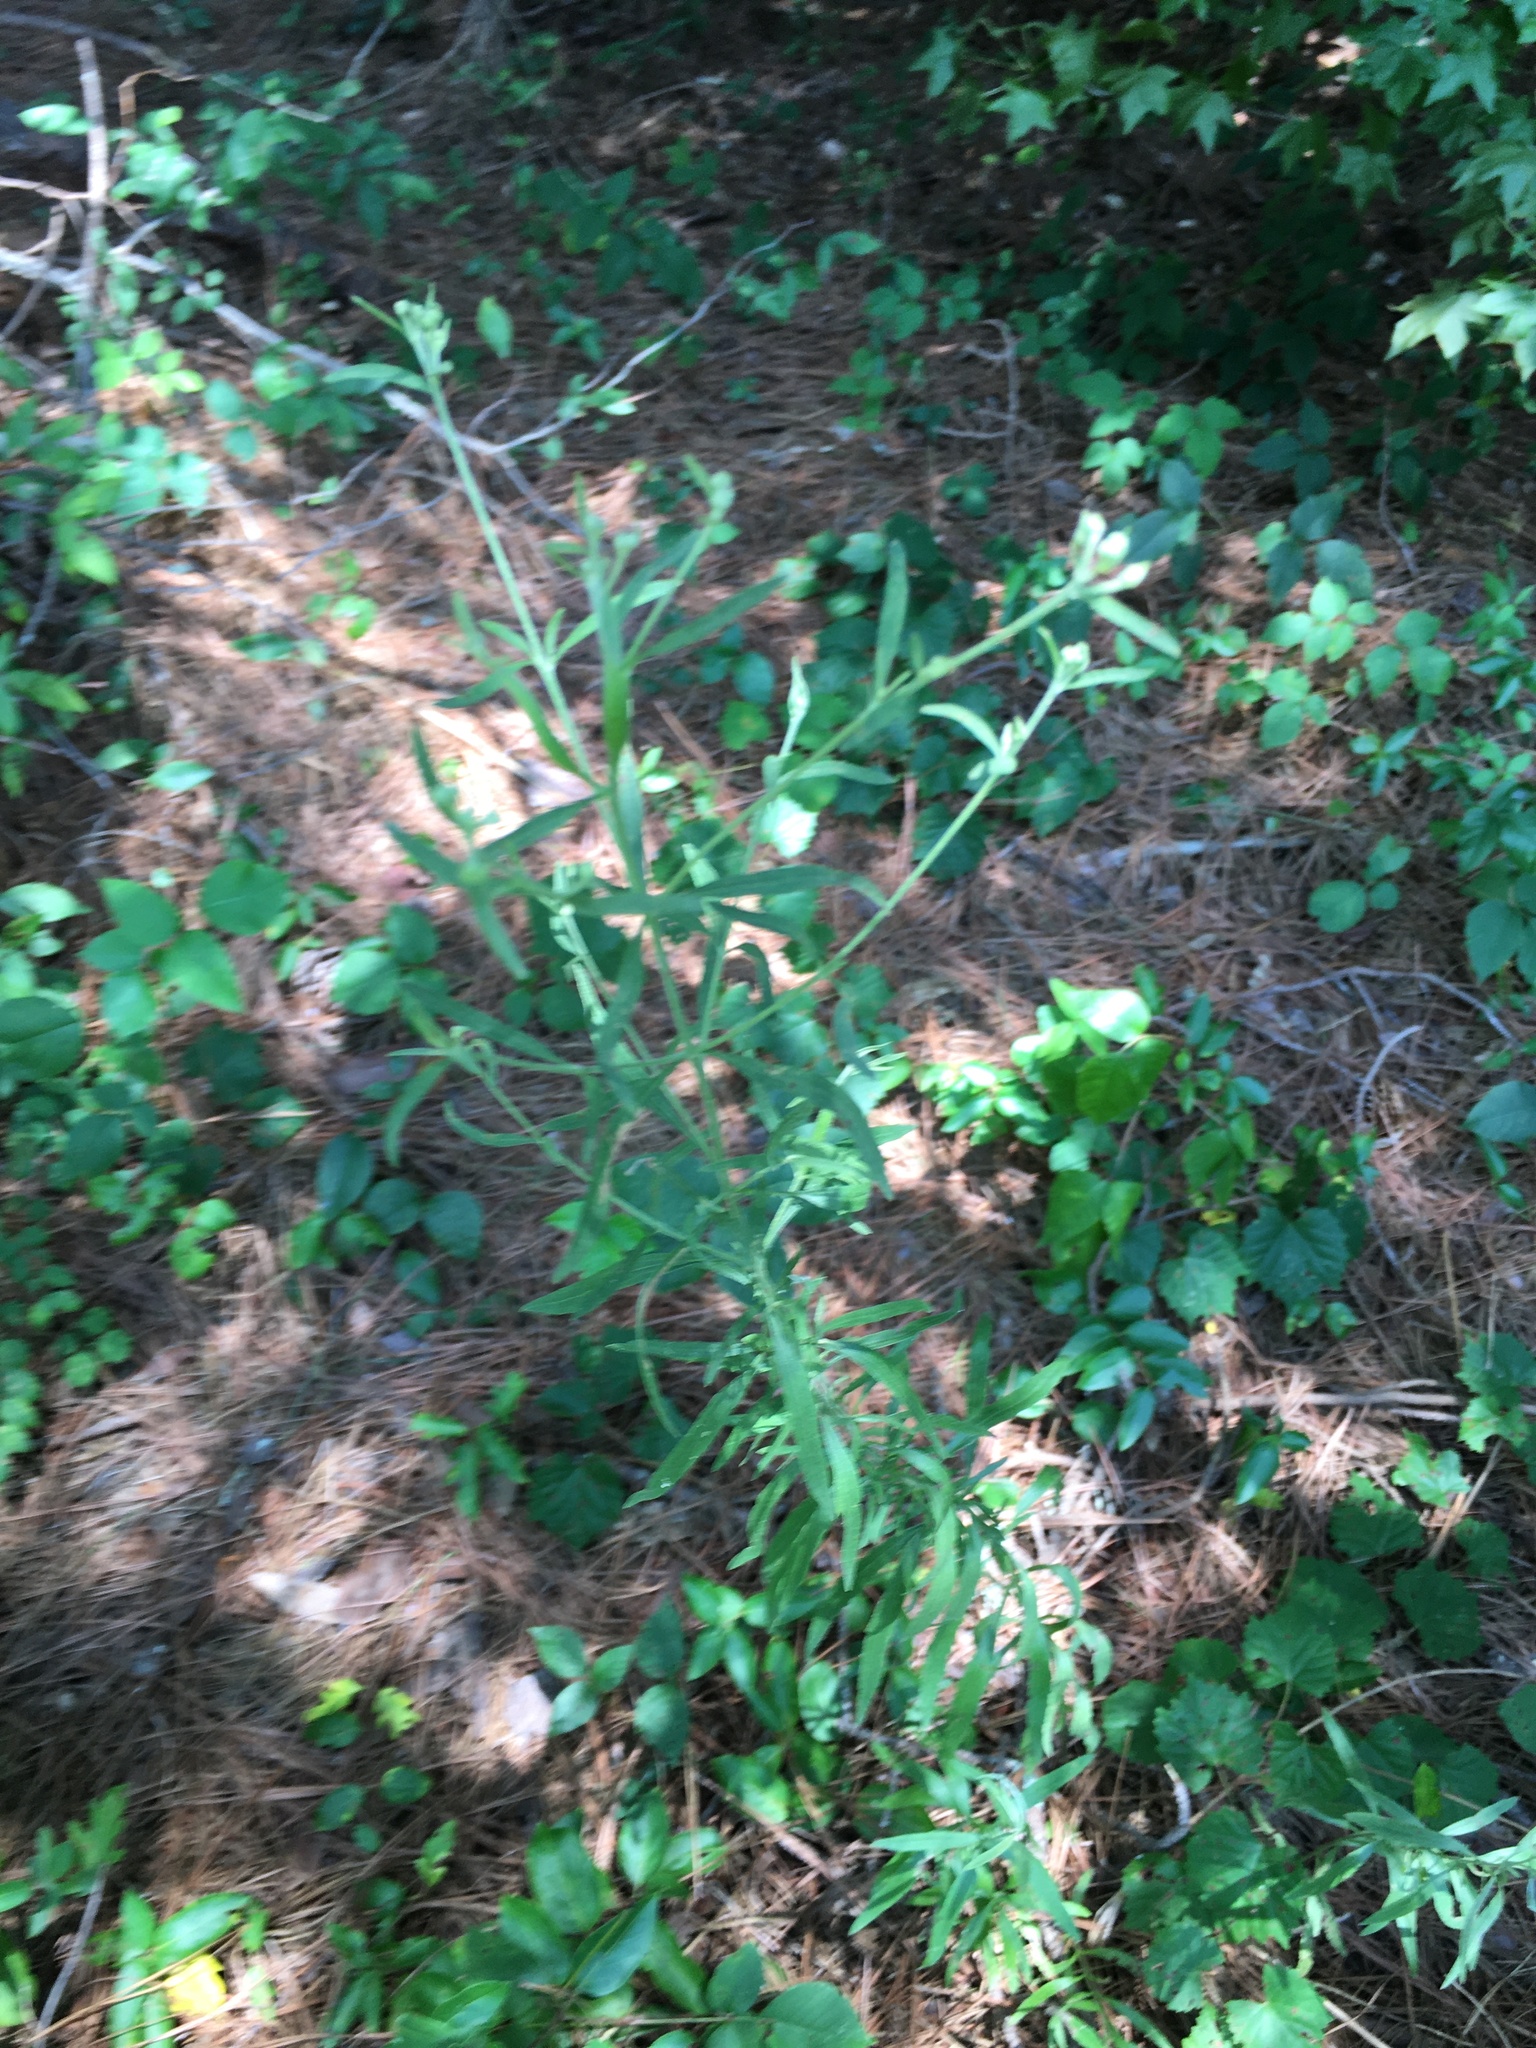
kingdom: Plantae
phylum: Tracheophyta
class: Magnoliopsida
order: Asterales
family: Asteraceae
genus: Eupatorium
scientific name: Eupatorium torreyanum
